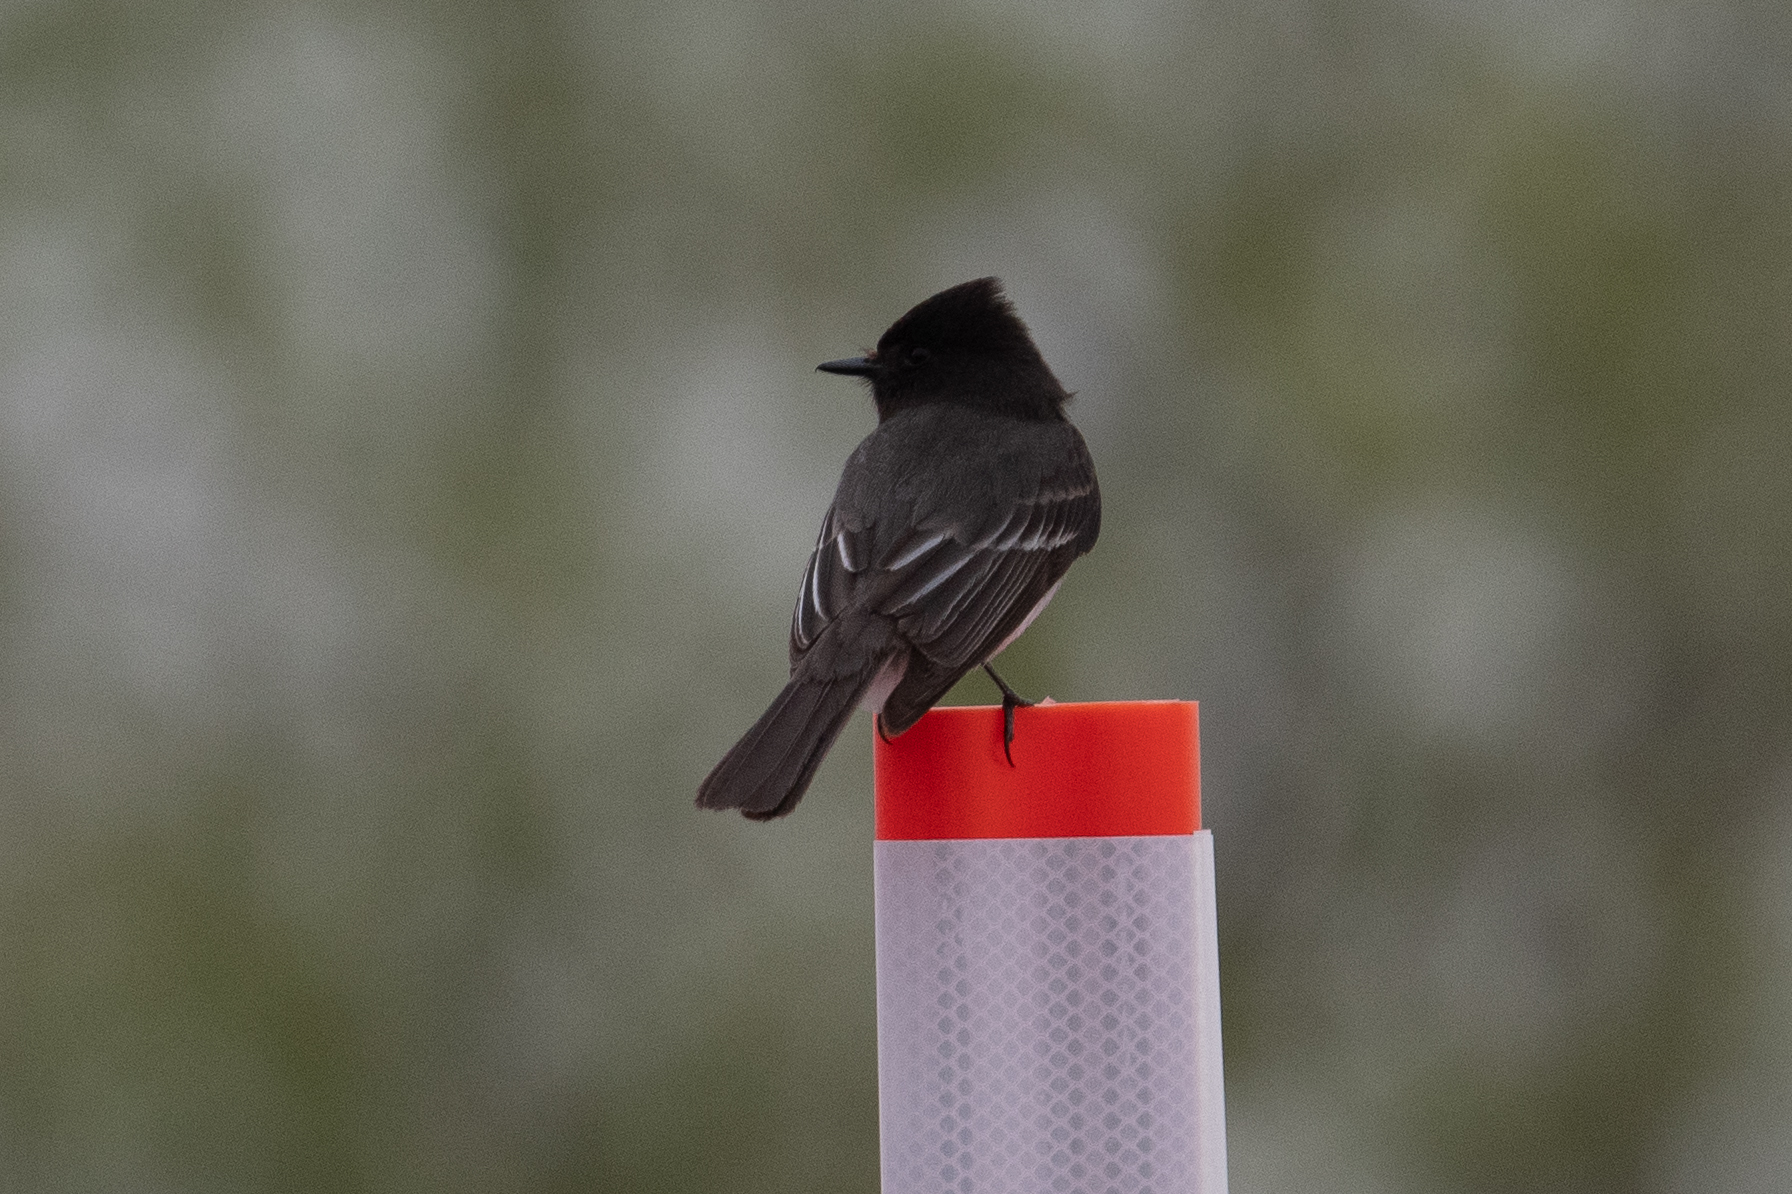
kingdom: Animalia
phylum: Chordata
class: Aves
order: Passeriformes
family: Tyrannidae
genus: Sayornis
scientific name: Sayornis nigricans
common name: Black phoebe
